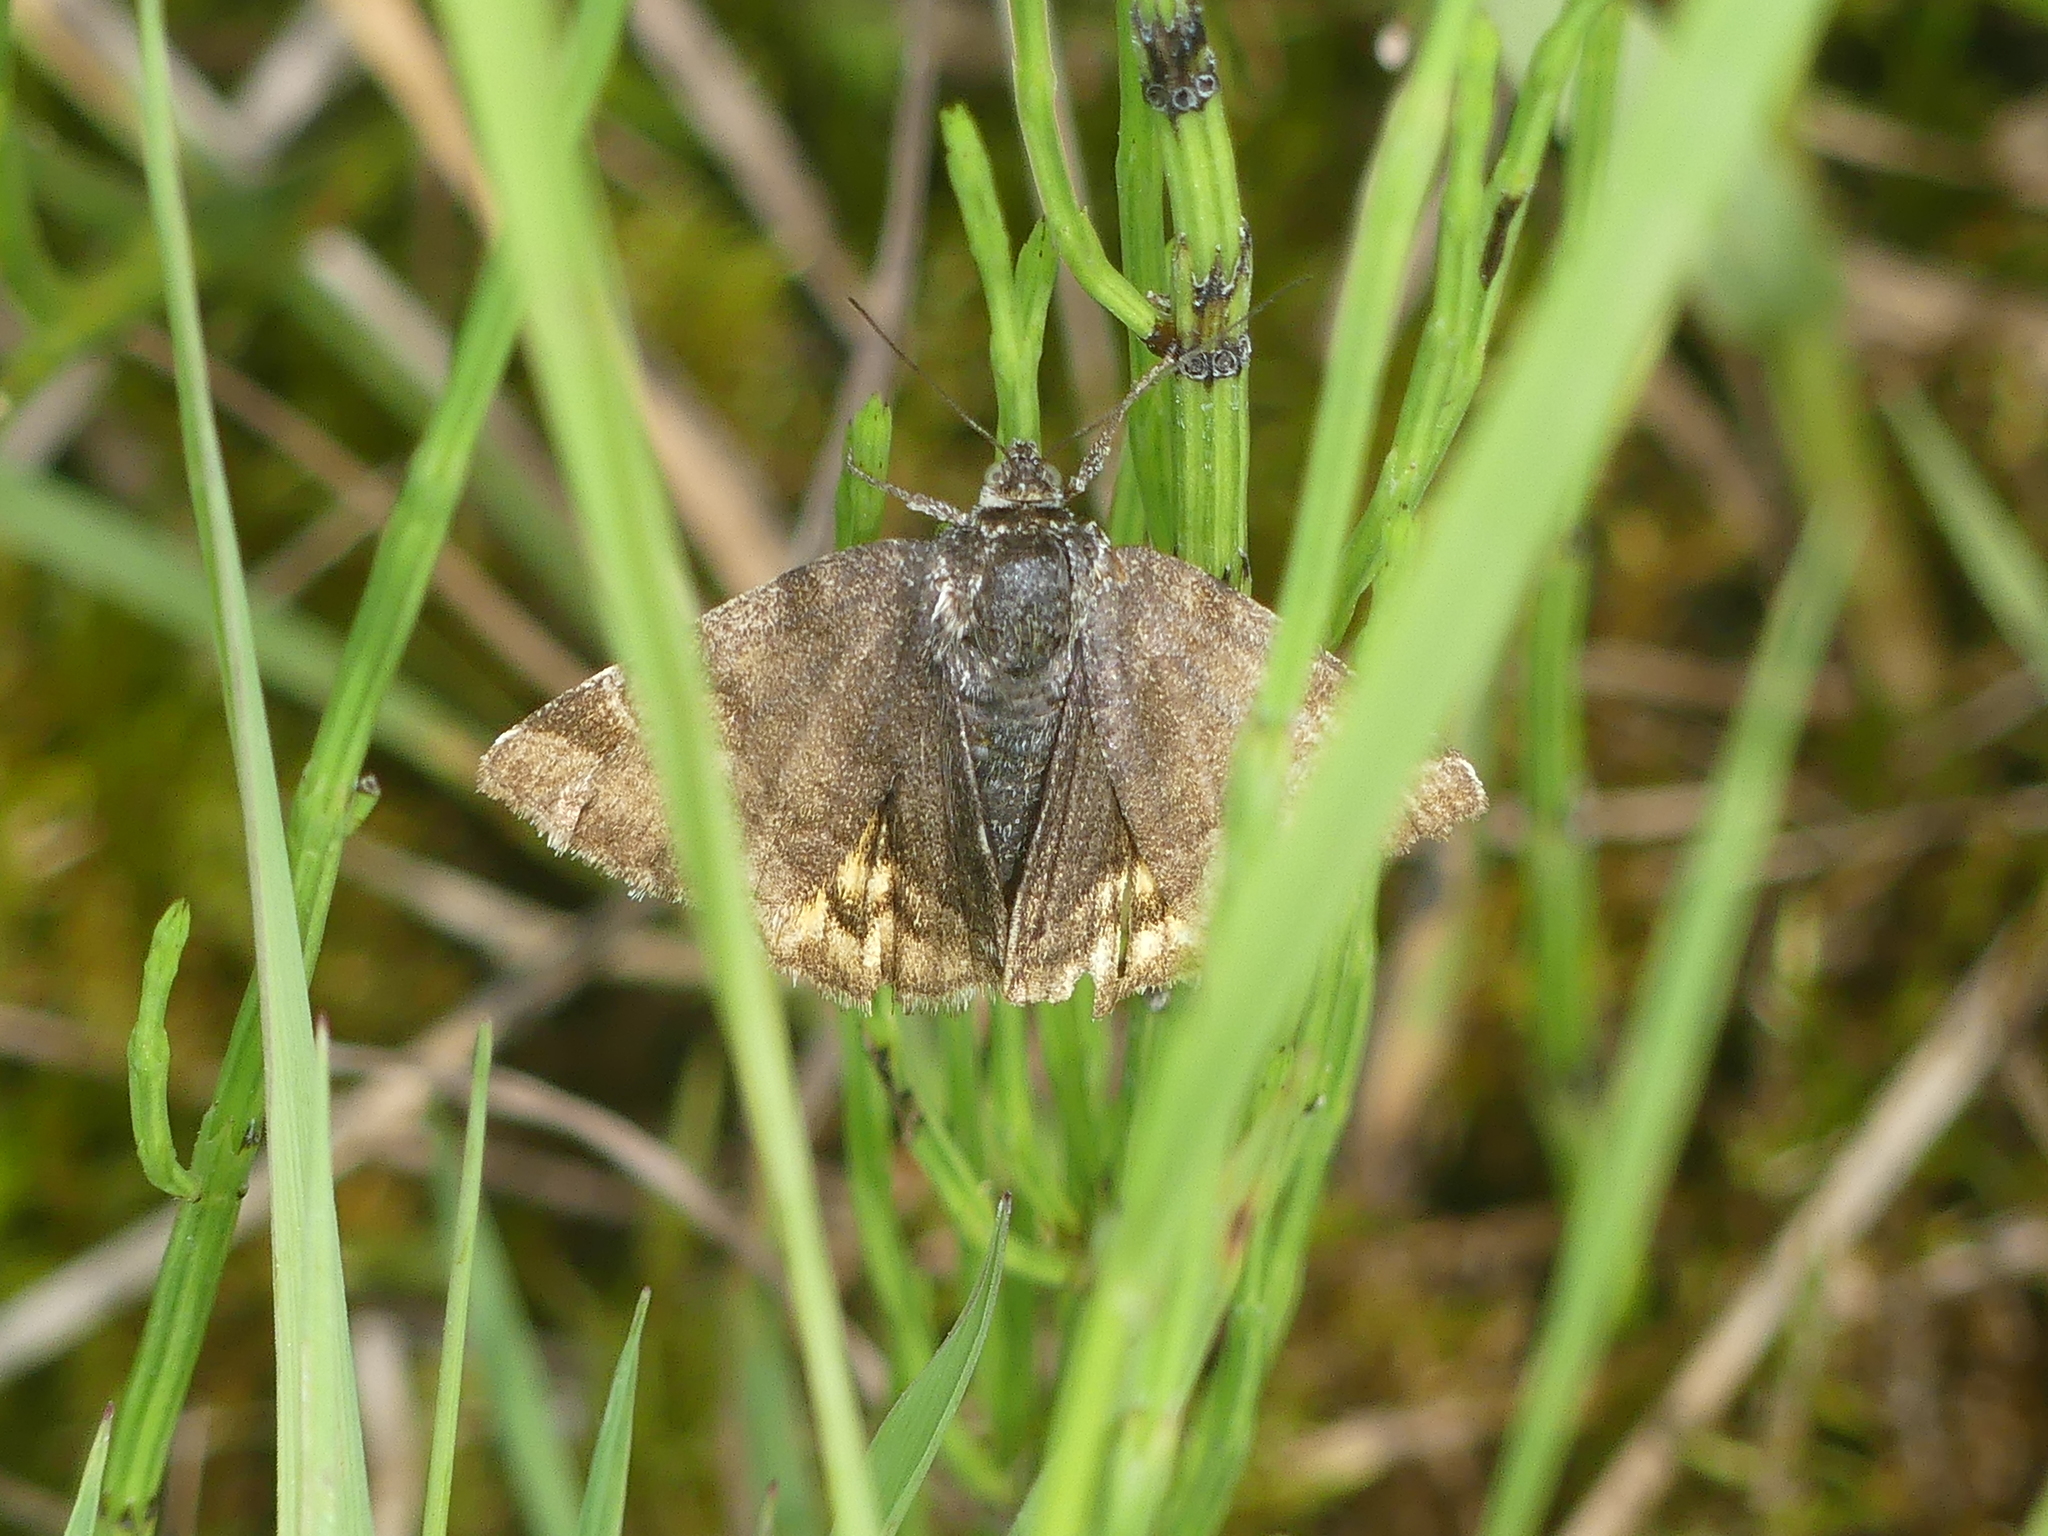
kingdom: Animalia
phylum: Arthropoda
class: Insecta
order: Lepidoptera
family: Erebidae
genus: Euclidia
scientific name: Euclidia glyphica
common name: Burnet companion
